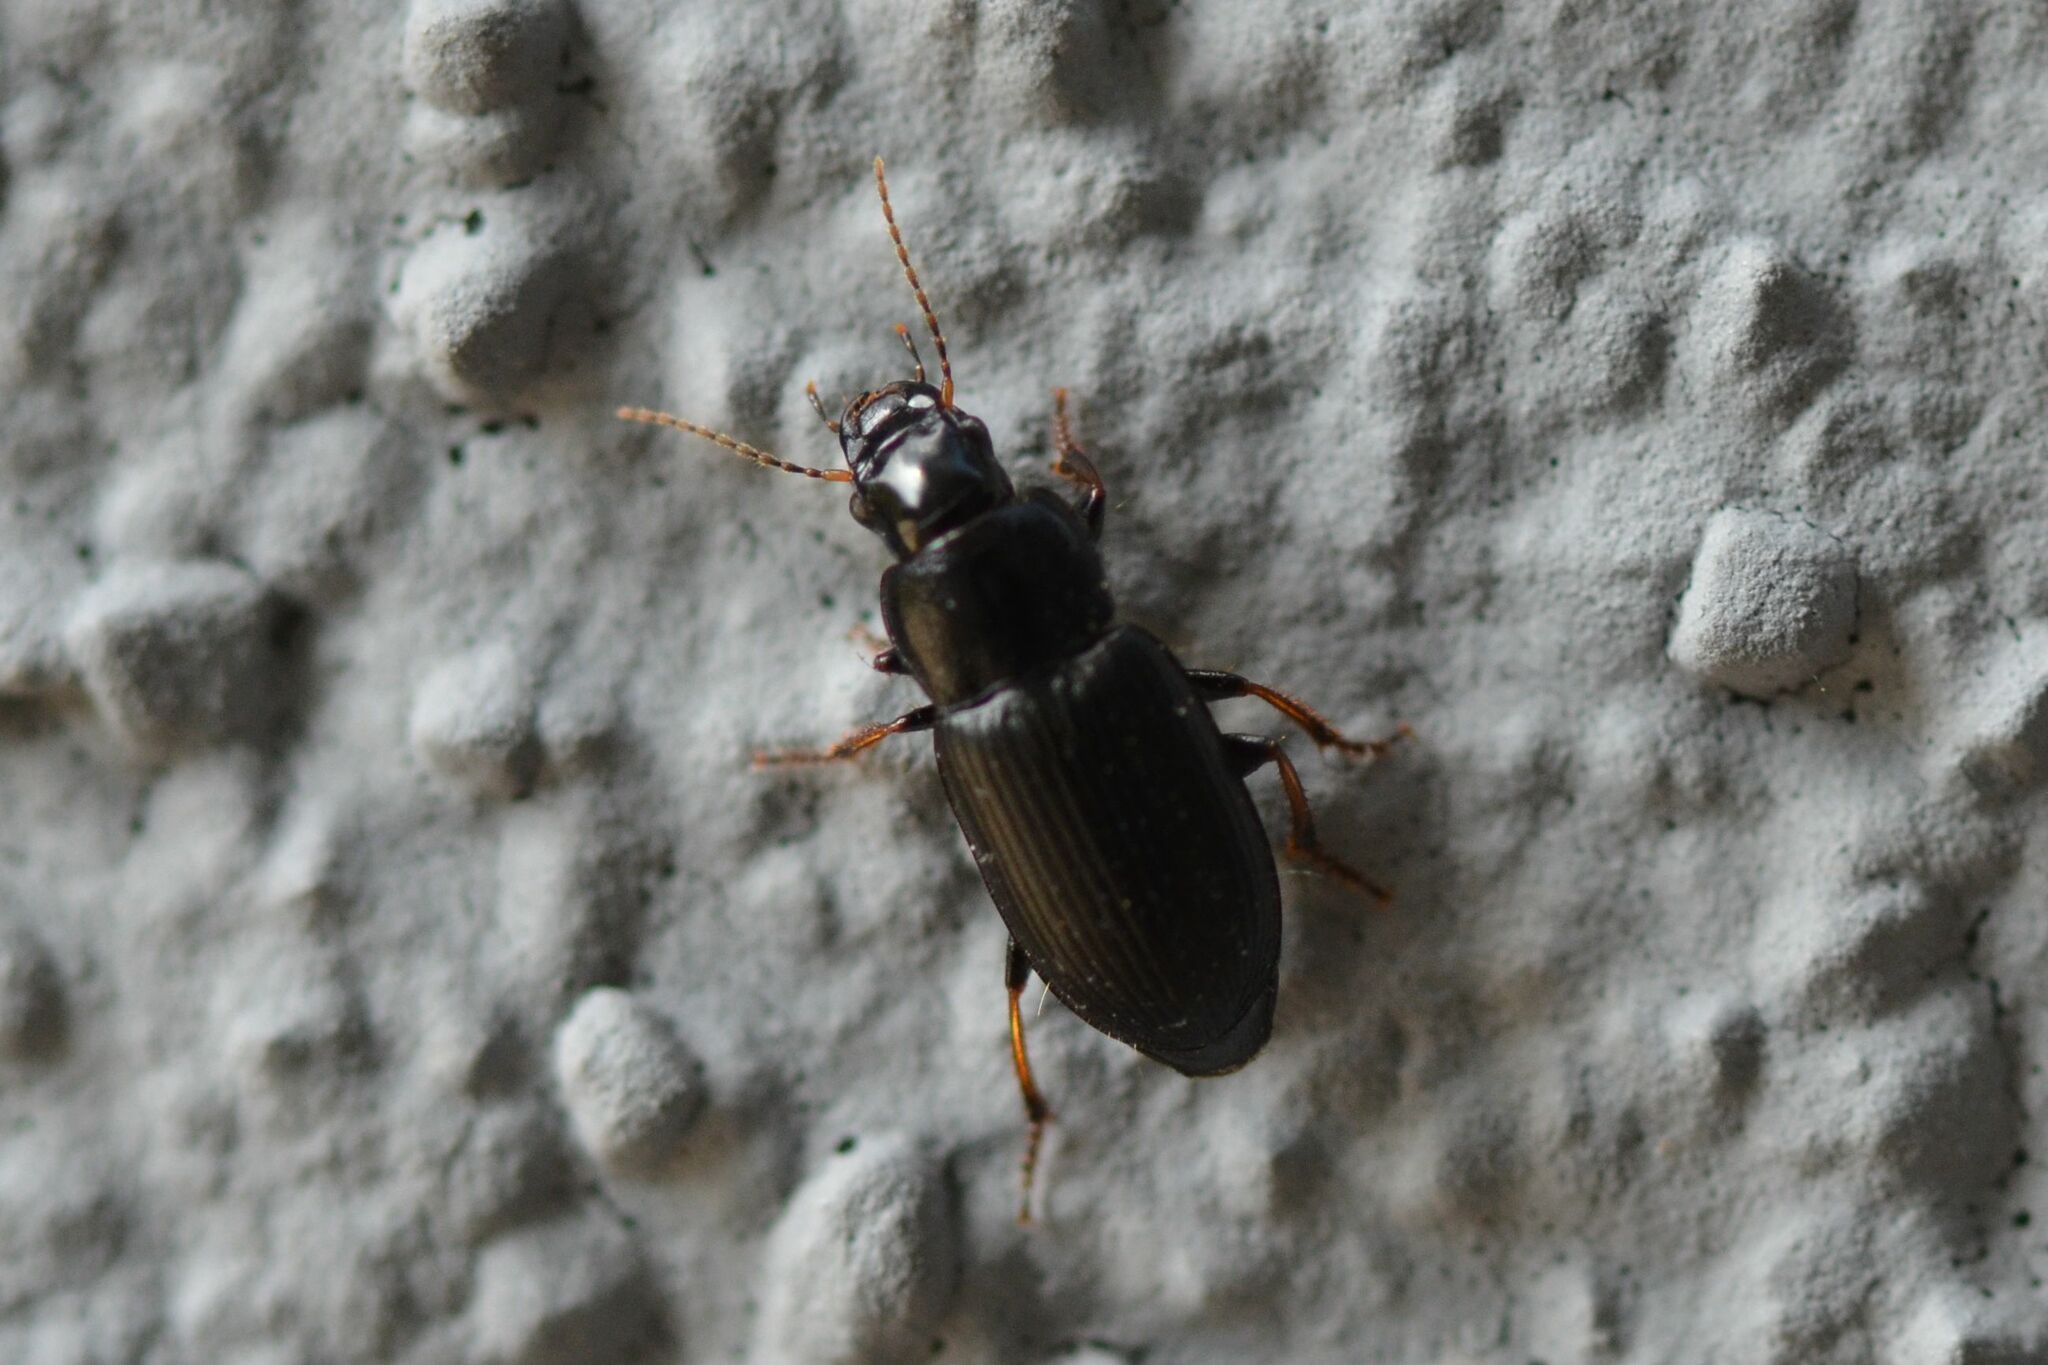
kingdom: Animalia
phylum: Arthropoda
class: Insecta
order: Coleoptera
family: Carabidae
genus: Harpalus
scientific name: Harpalus signaticornis
